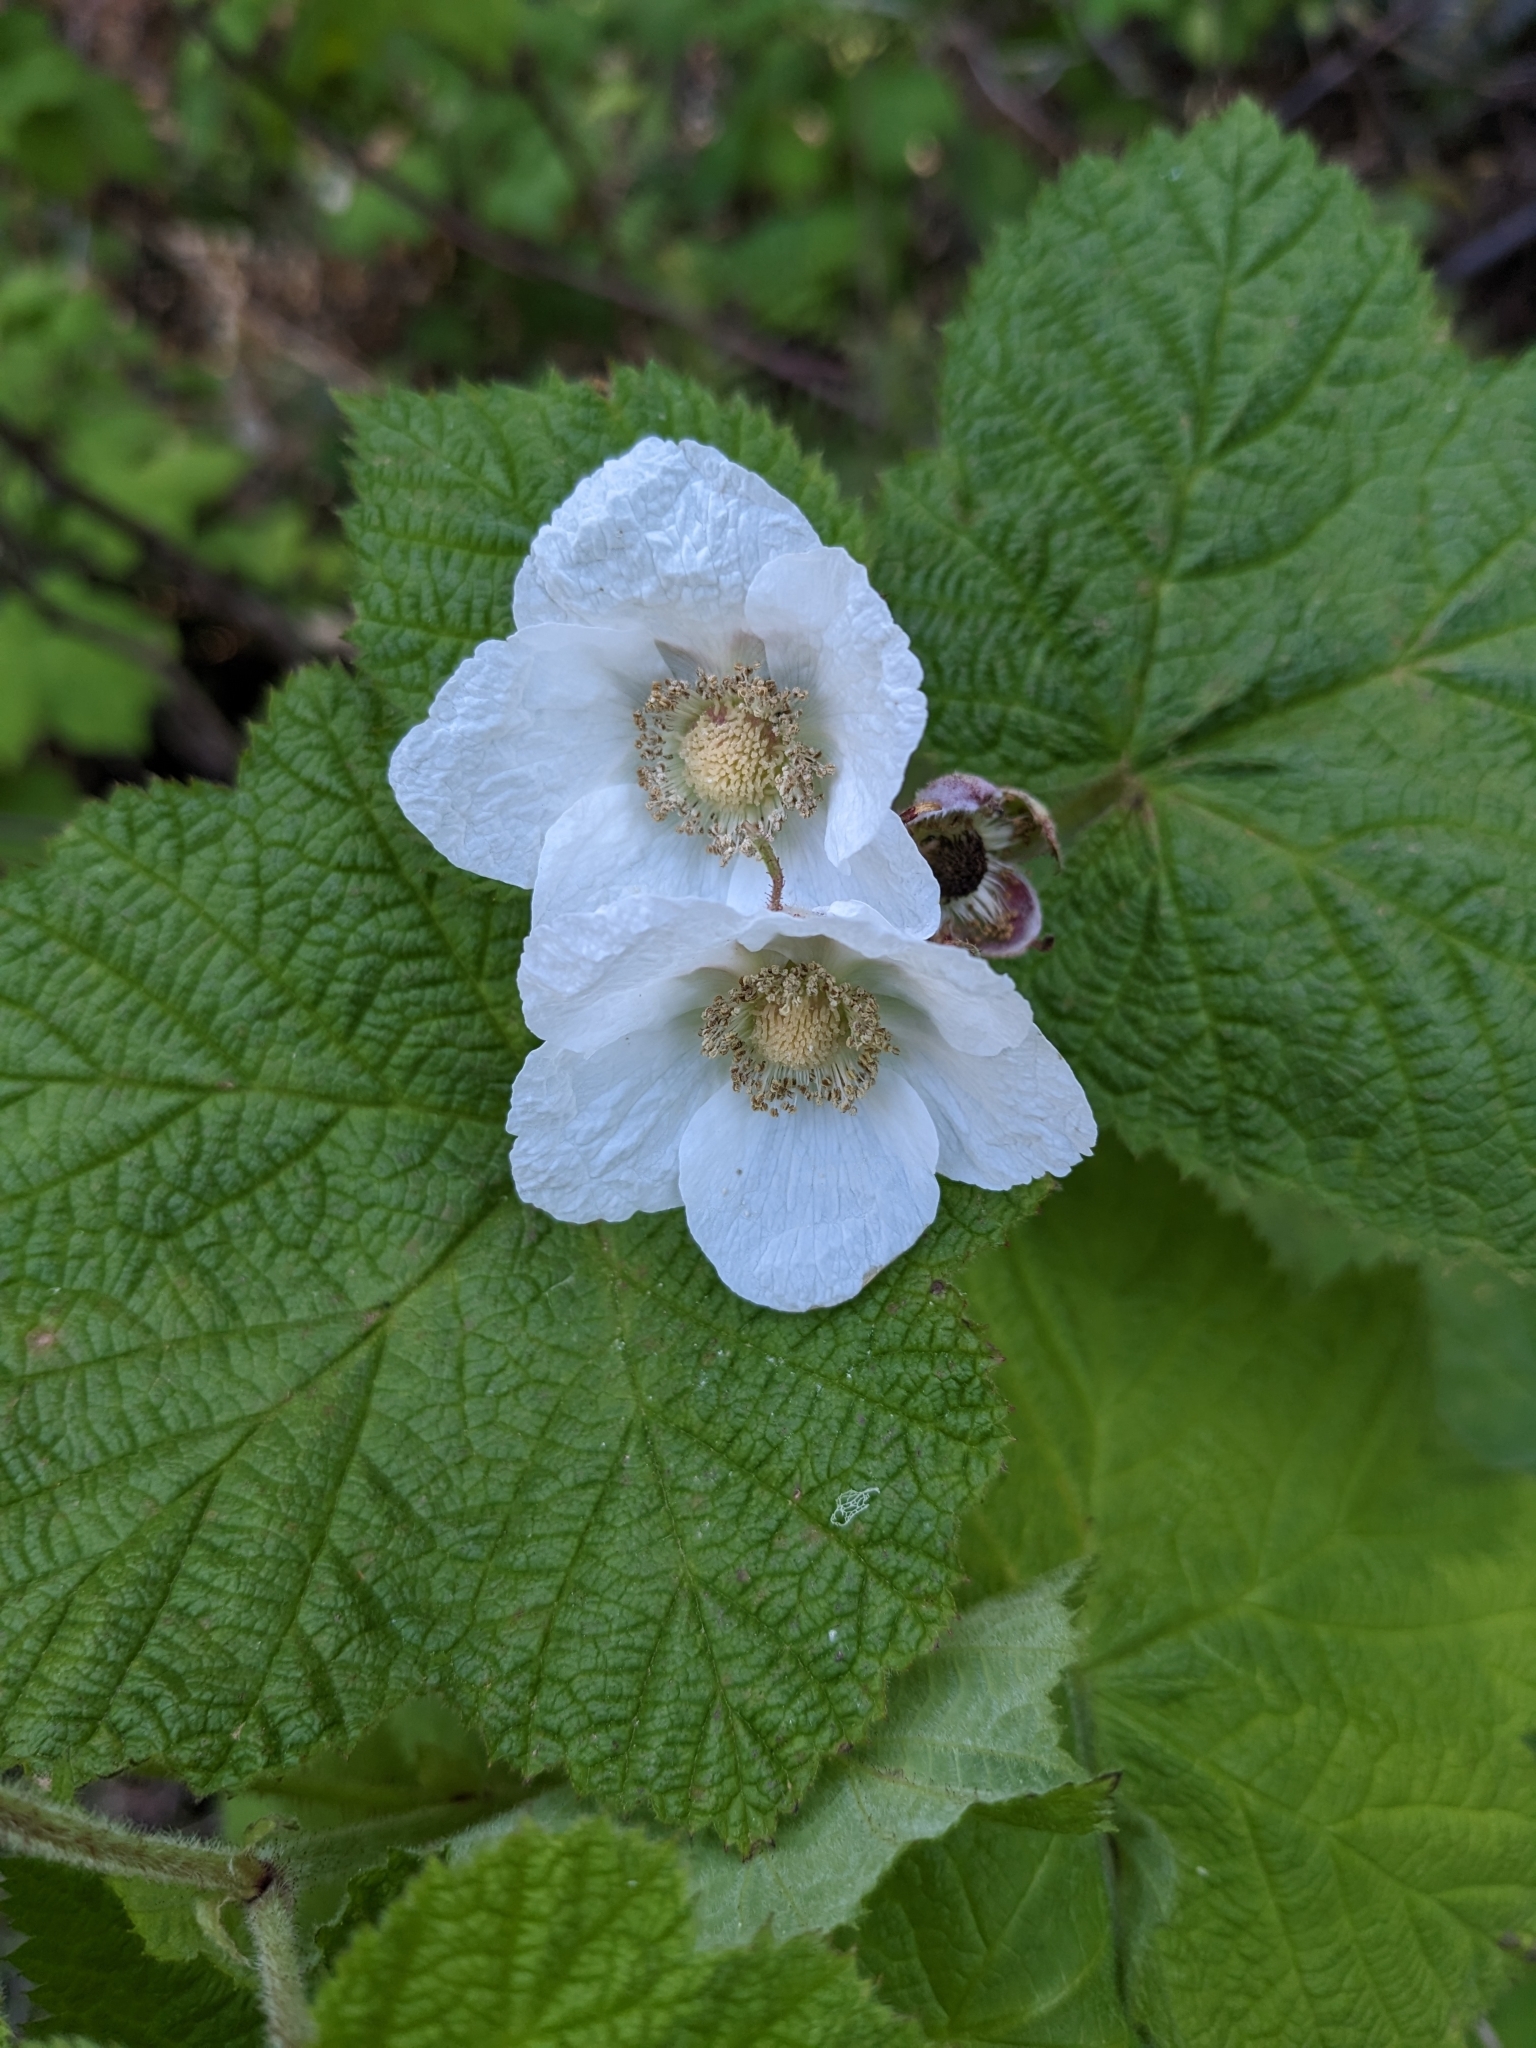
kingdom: Plantae
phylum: Tracheophyta
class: Magnoliopsida
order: Rosales
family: Rosaceae
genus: Rubus
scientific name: Rubus parviflorus
